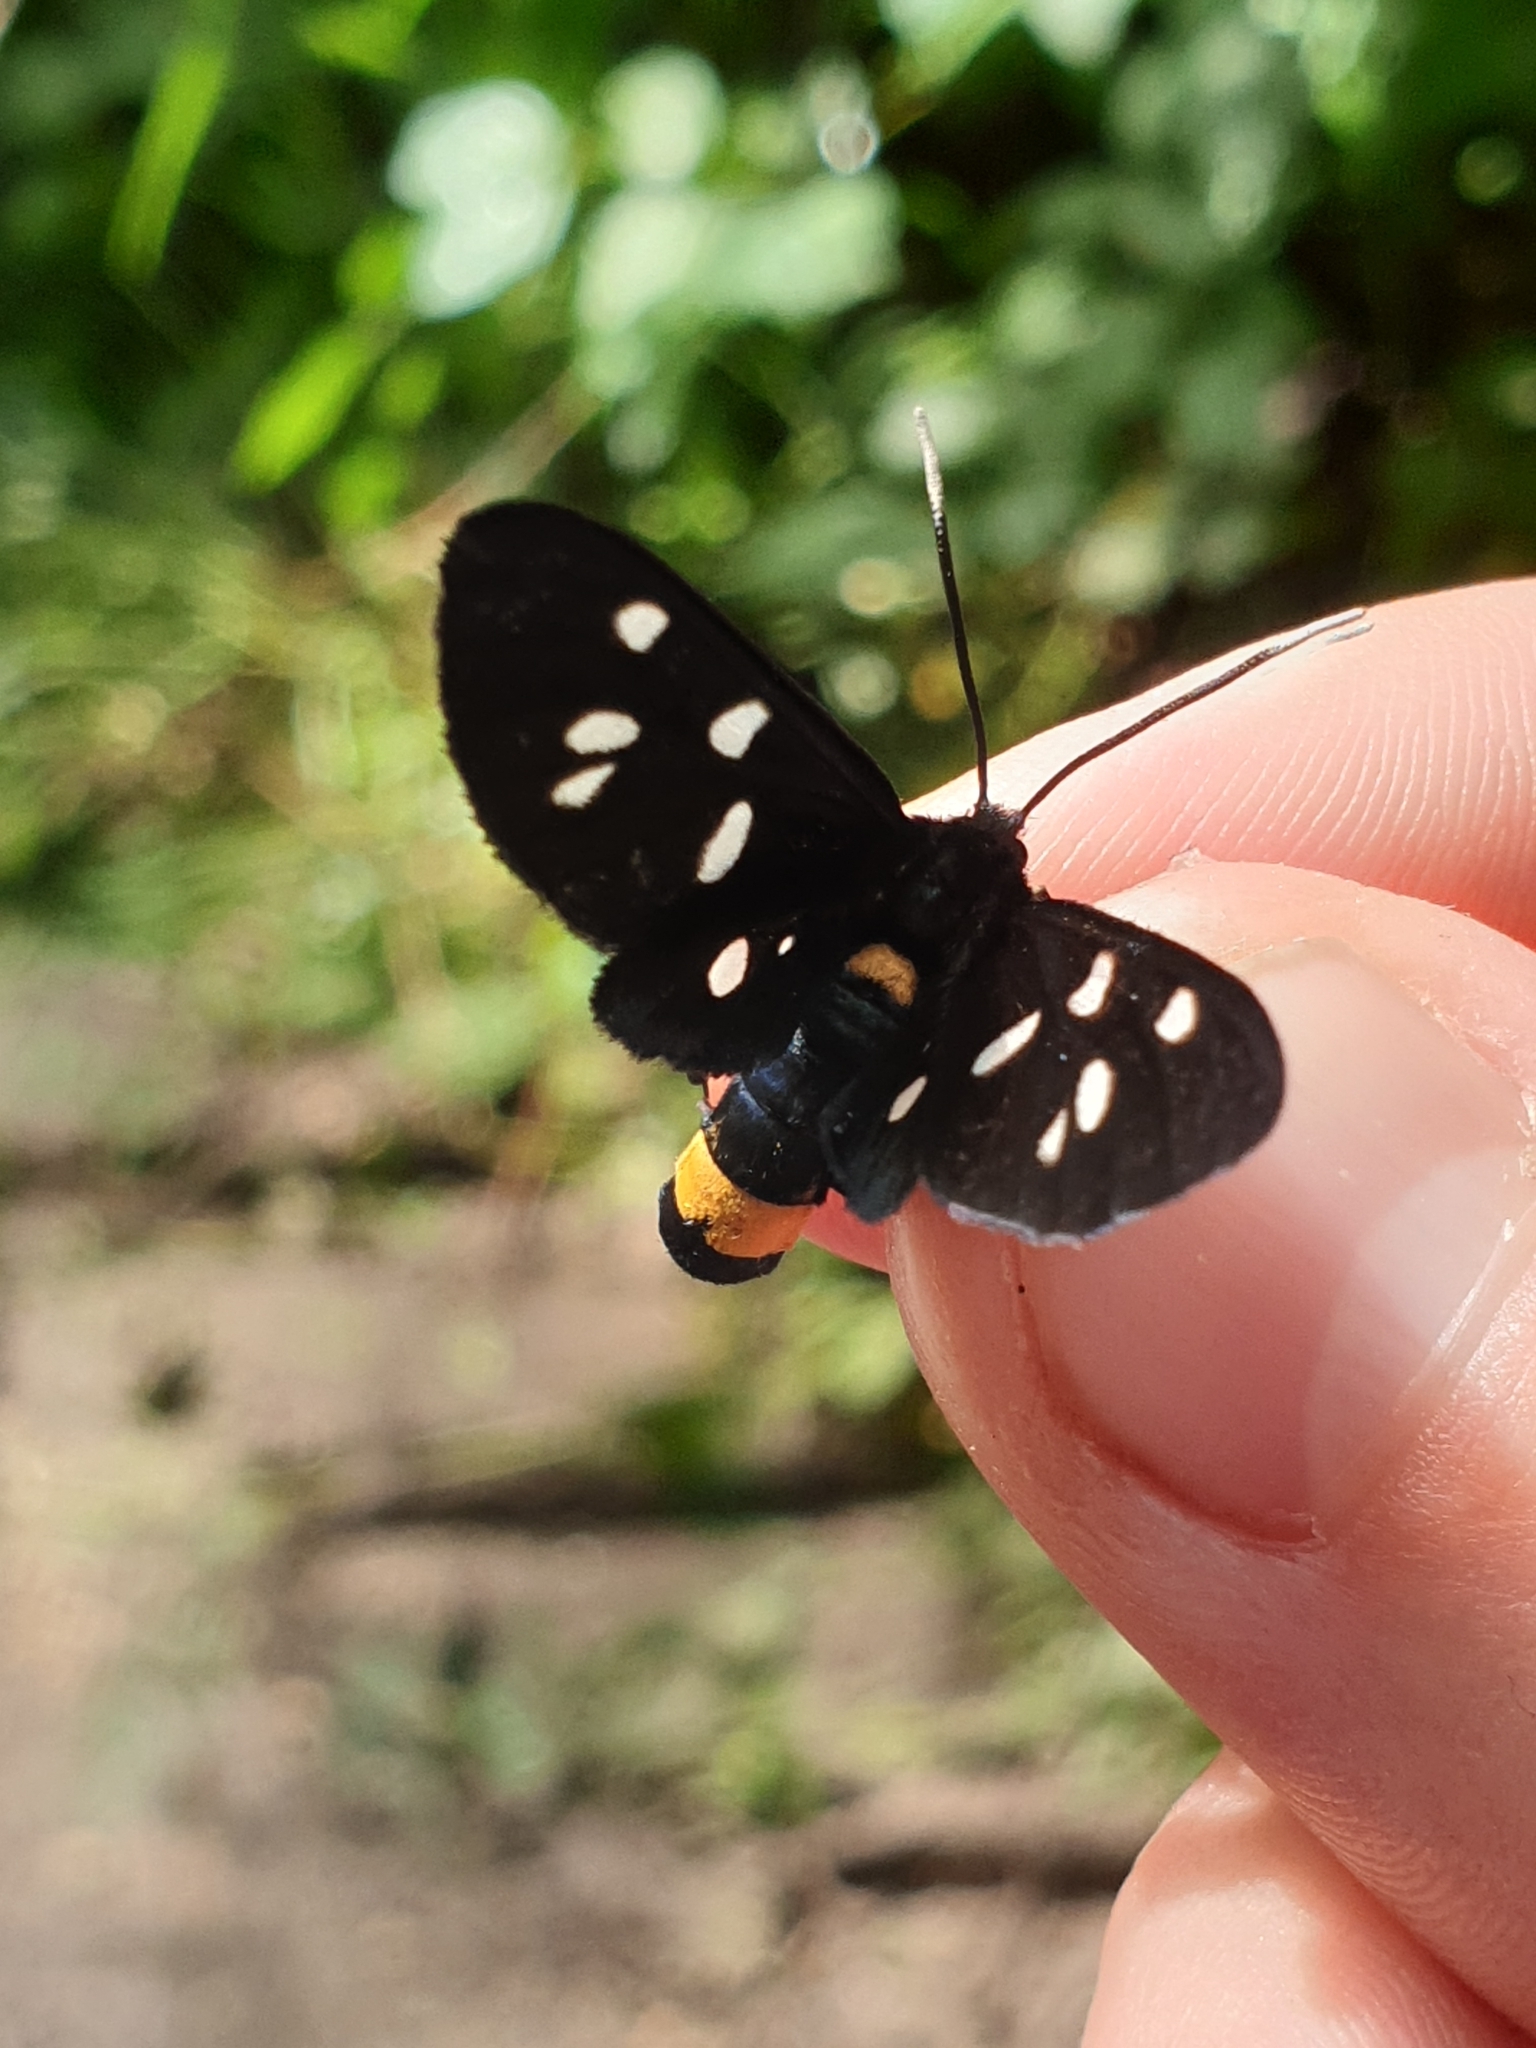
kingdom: Animalia
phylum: Arthropoda
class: Insecta
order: Lepidoptera
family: Erebidae
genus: Amata
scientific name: Amata phegea
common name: Nine-spotted
